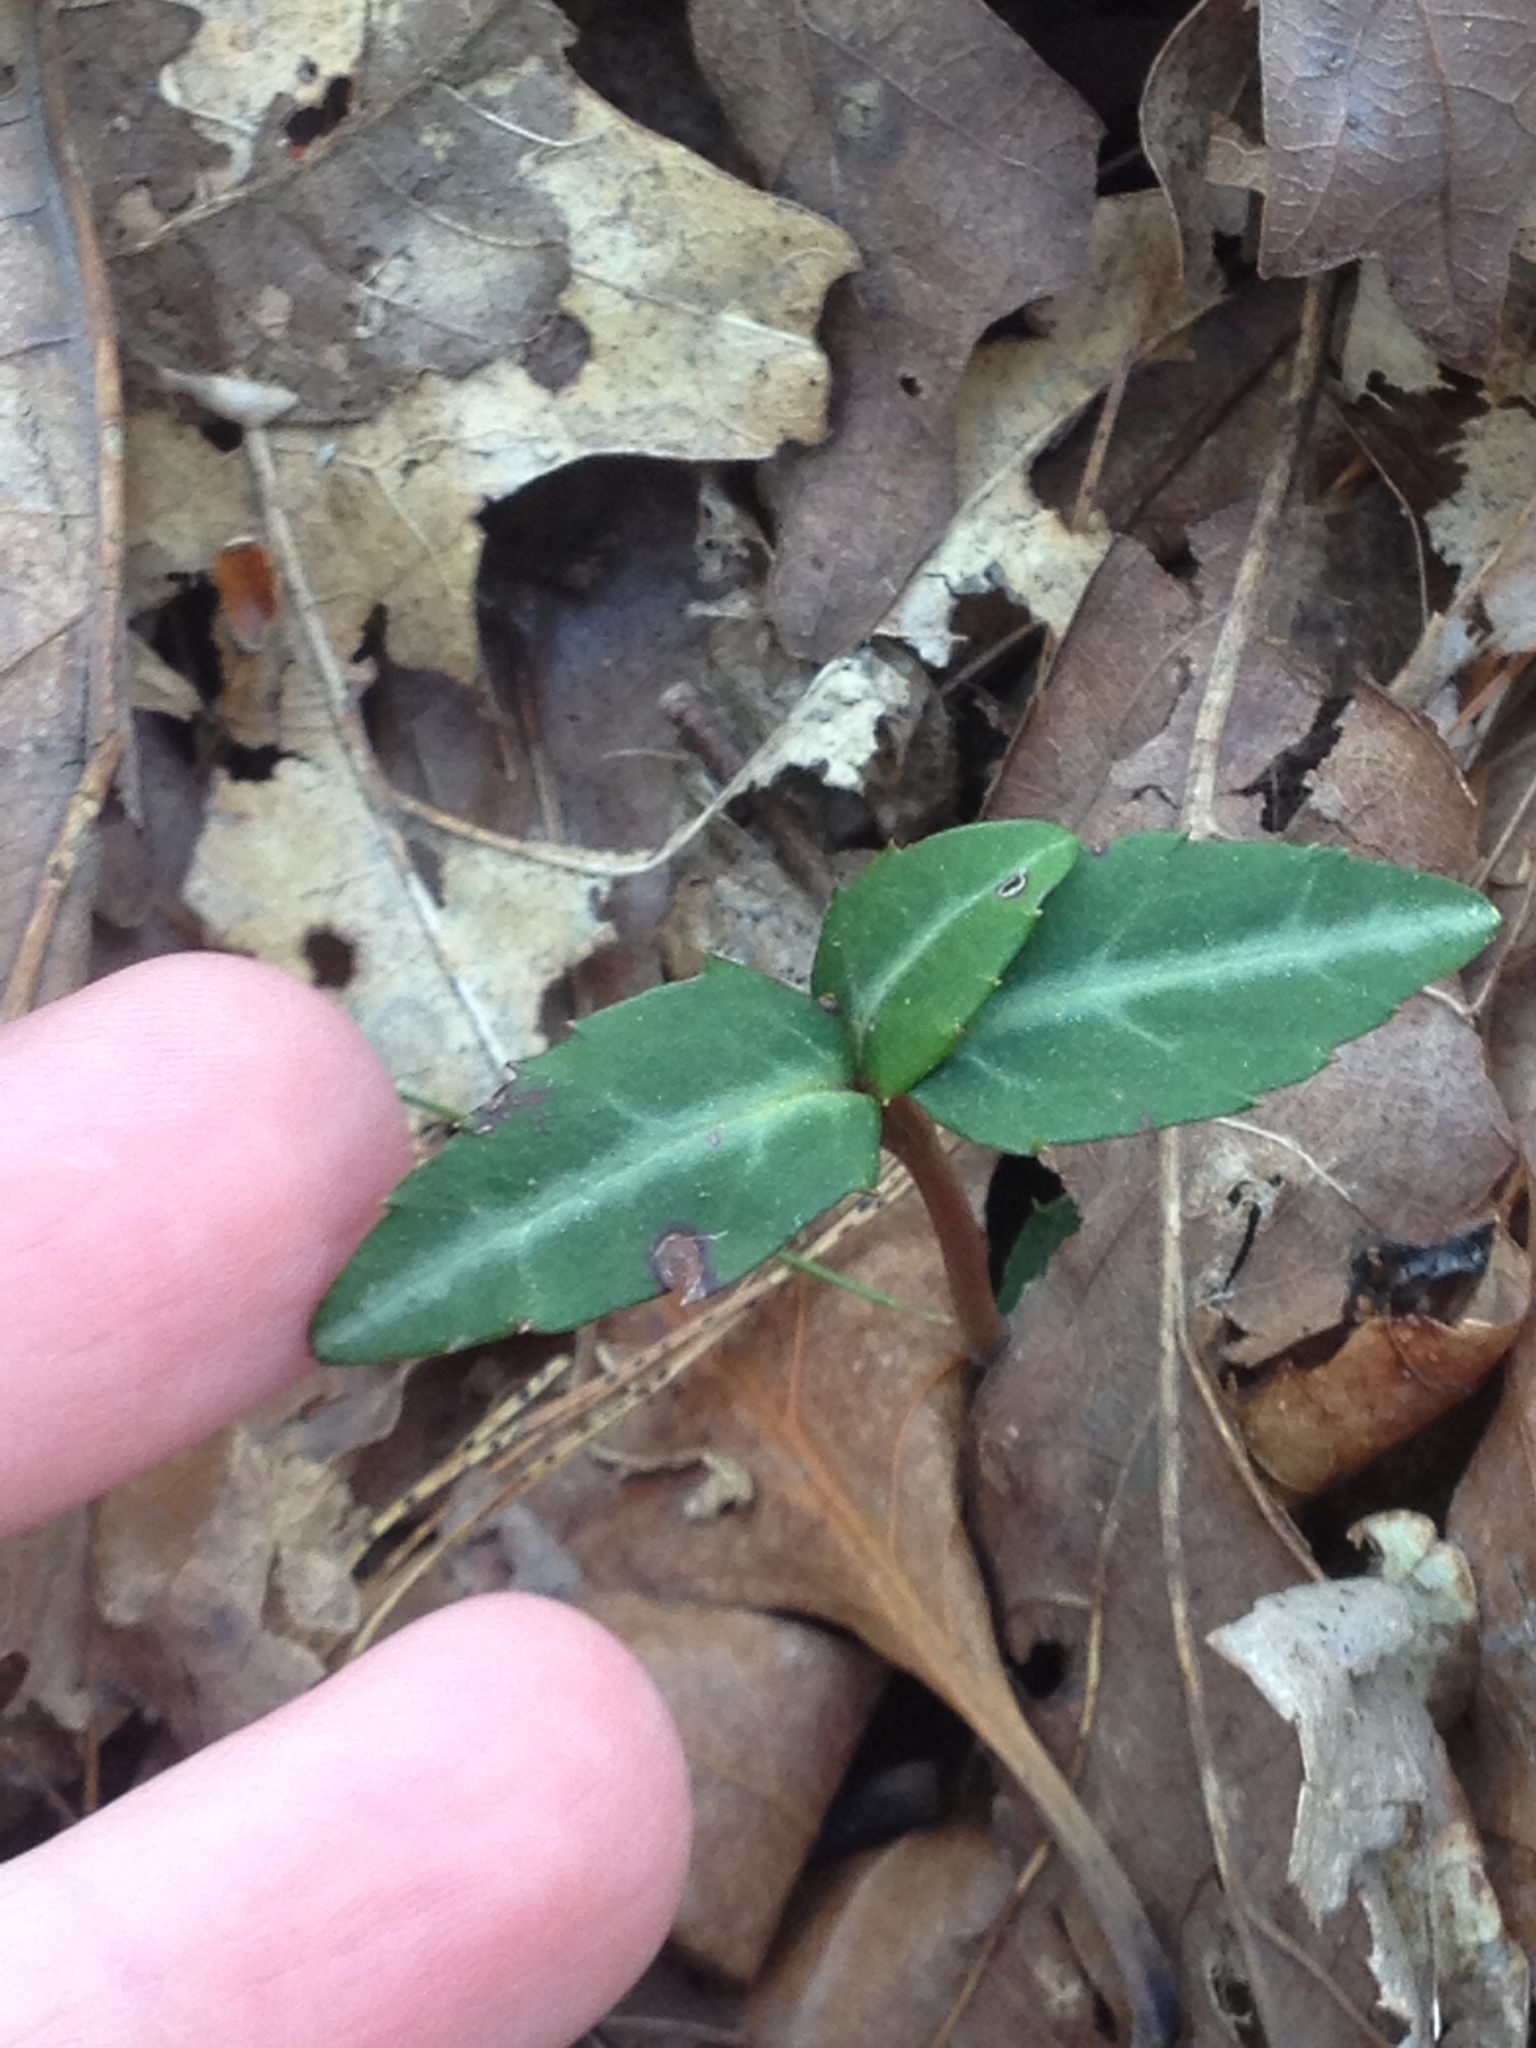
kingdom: Plantae
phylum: Tracheophyta
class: Magnoliopsida
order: Ericales
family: Ericaceae
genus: Chimaphila
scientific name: Chimaphila maculata
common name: Spotted pipsissewa
